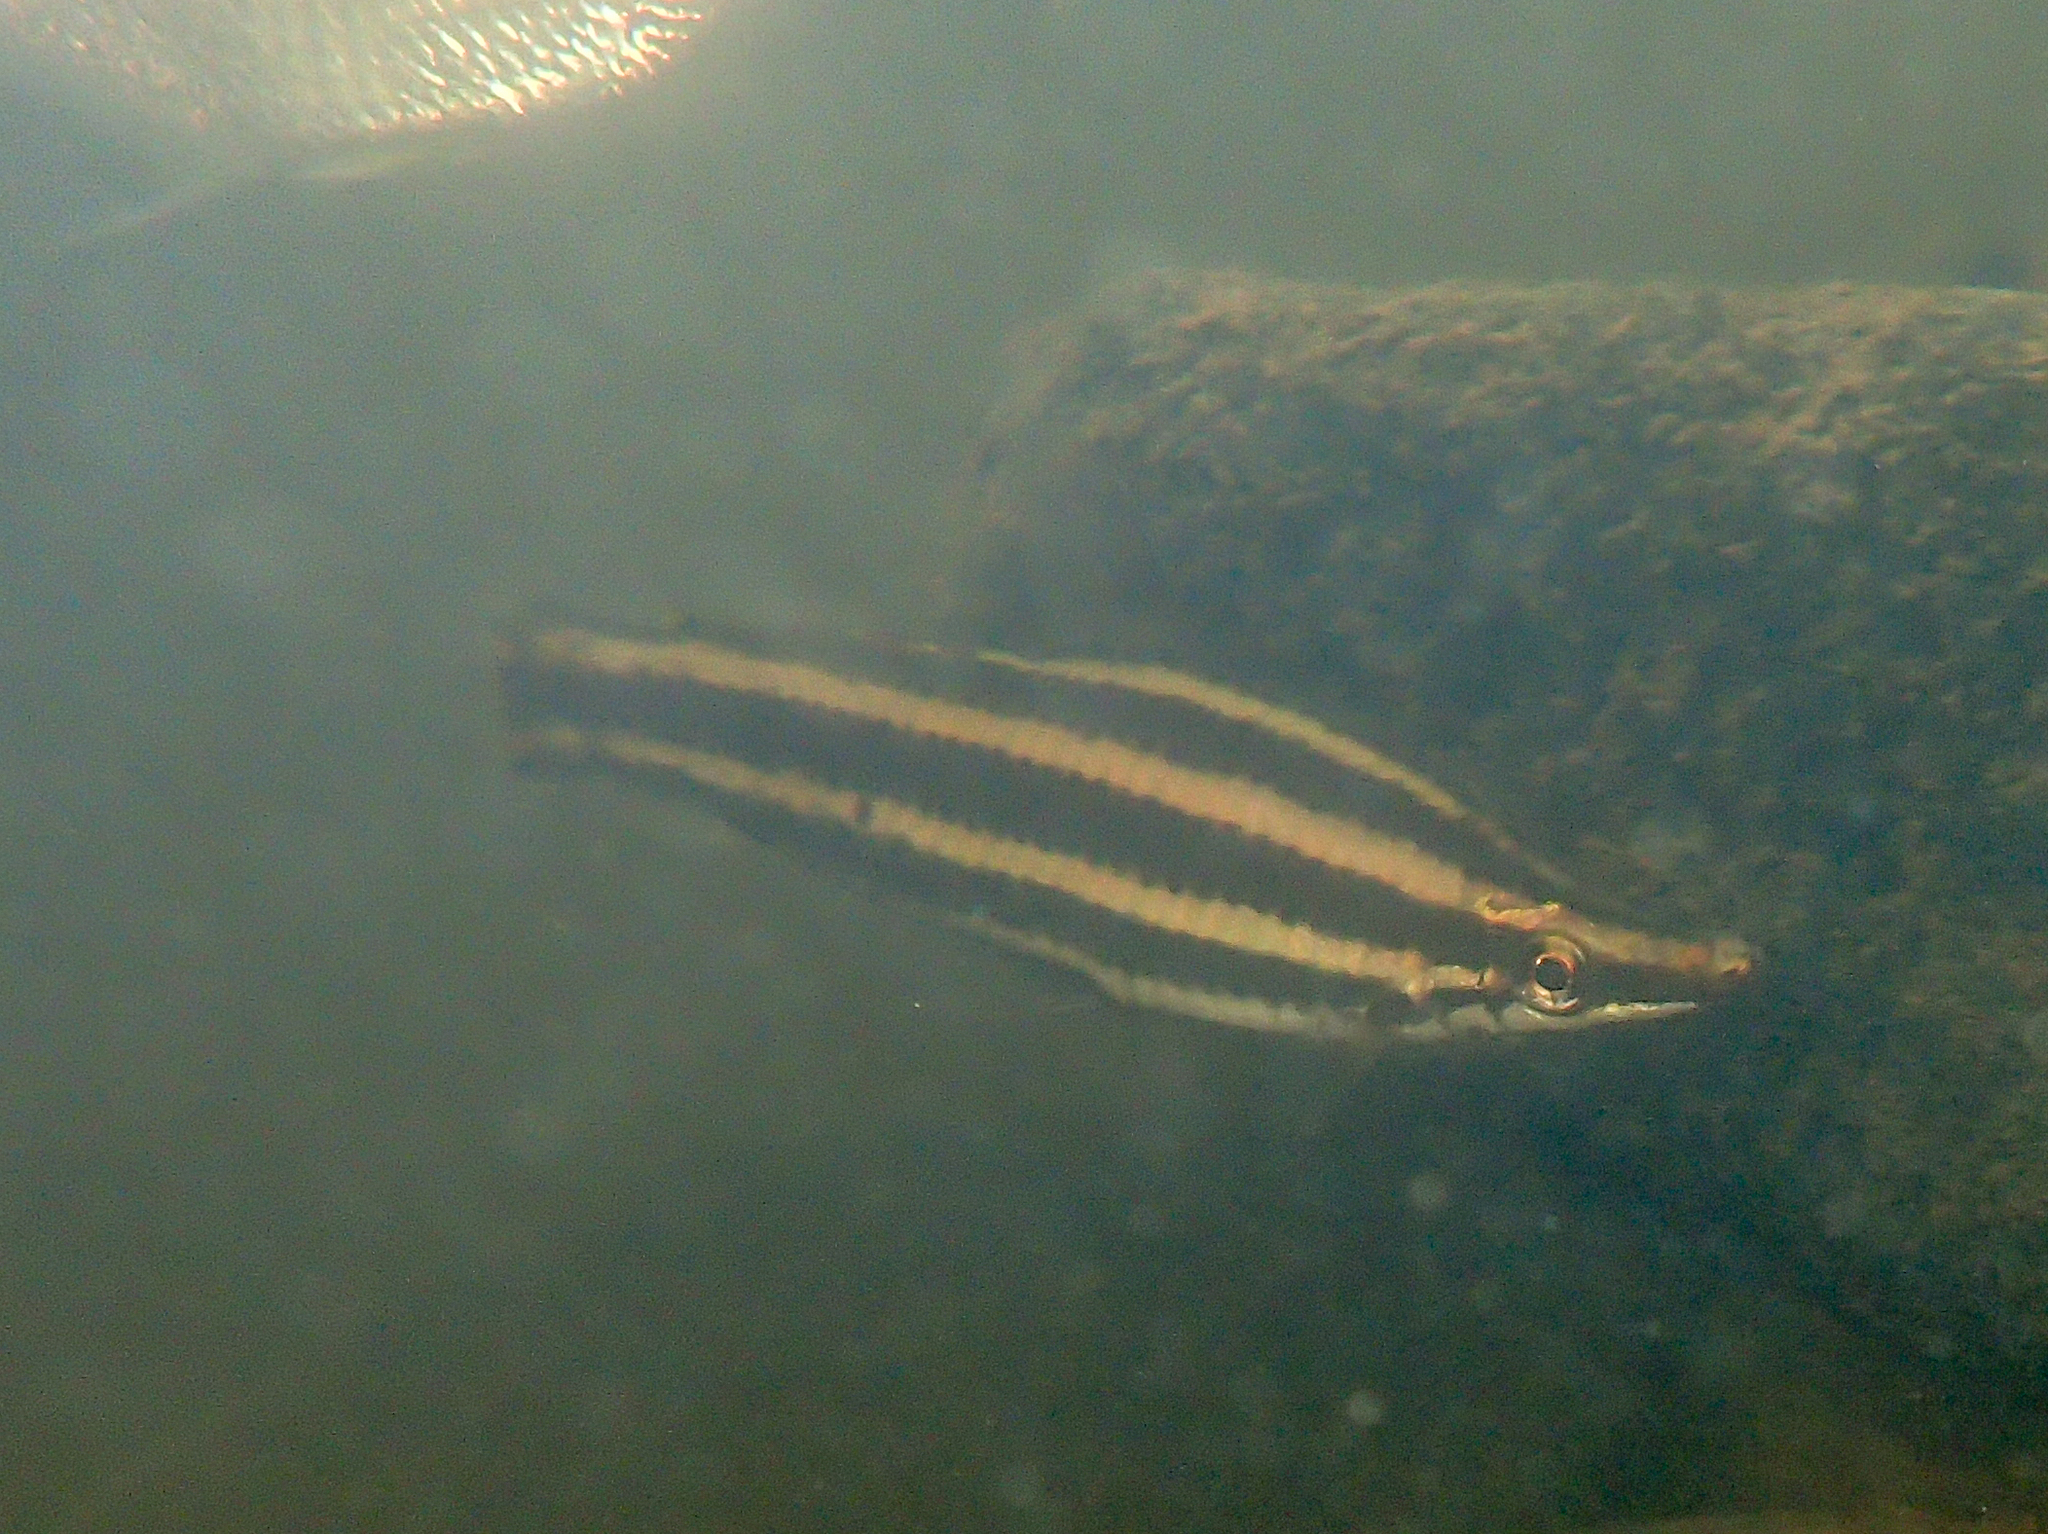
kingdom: Animalia
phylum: Chordata
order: Characiformes
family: Anostomidae
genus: Anostomus
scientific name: Anostomus brevior
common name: Striped headstander
